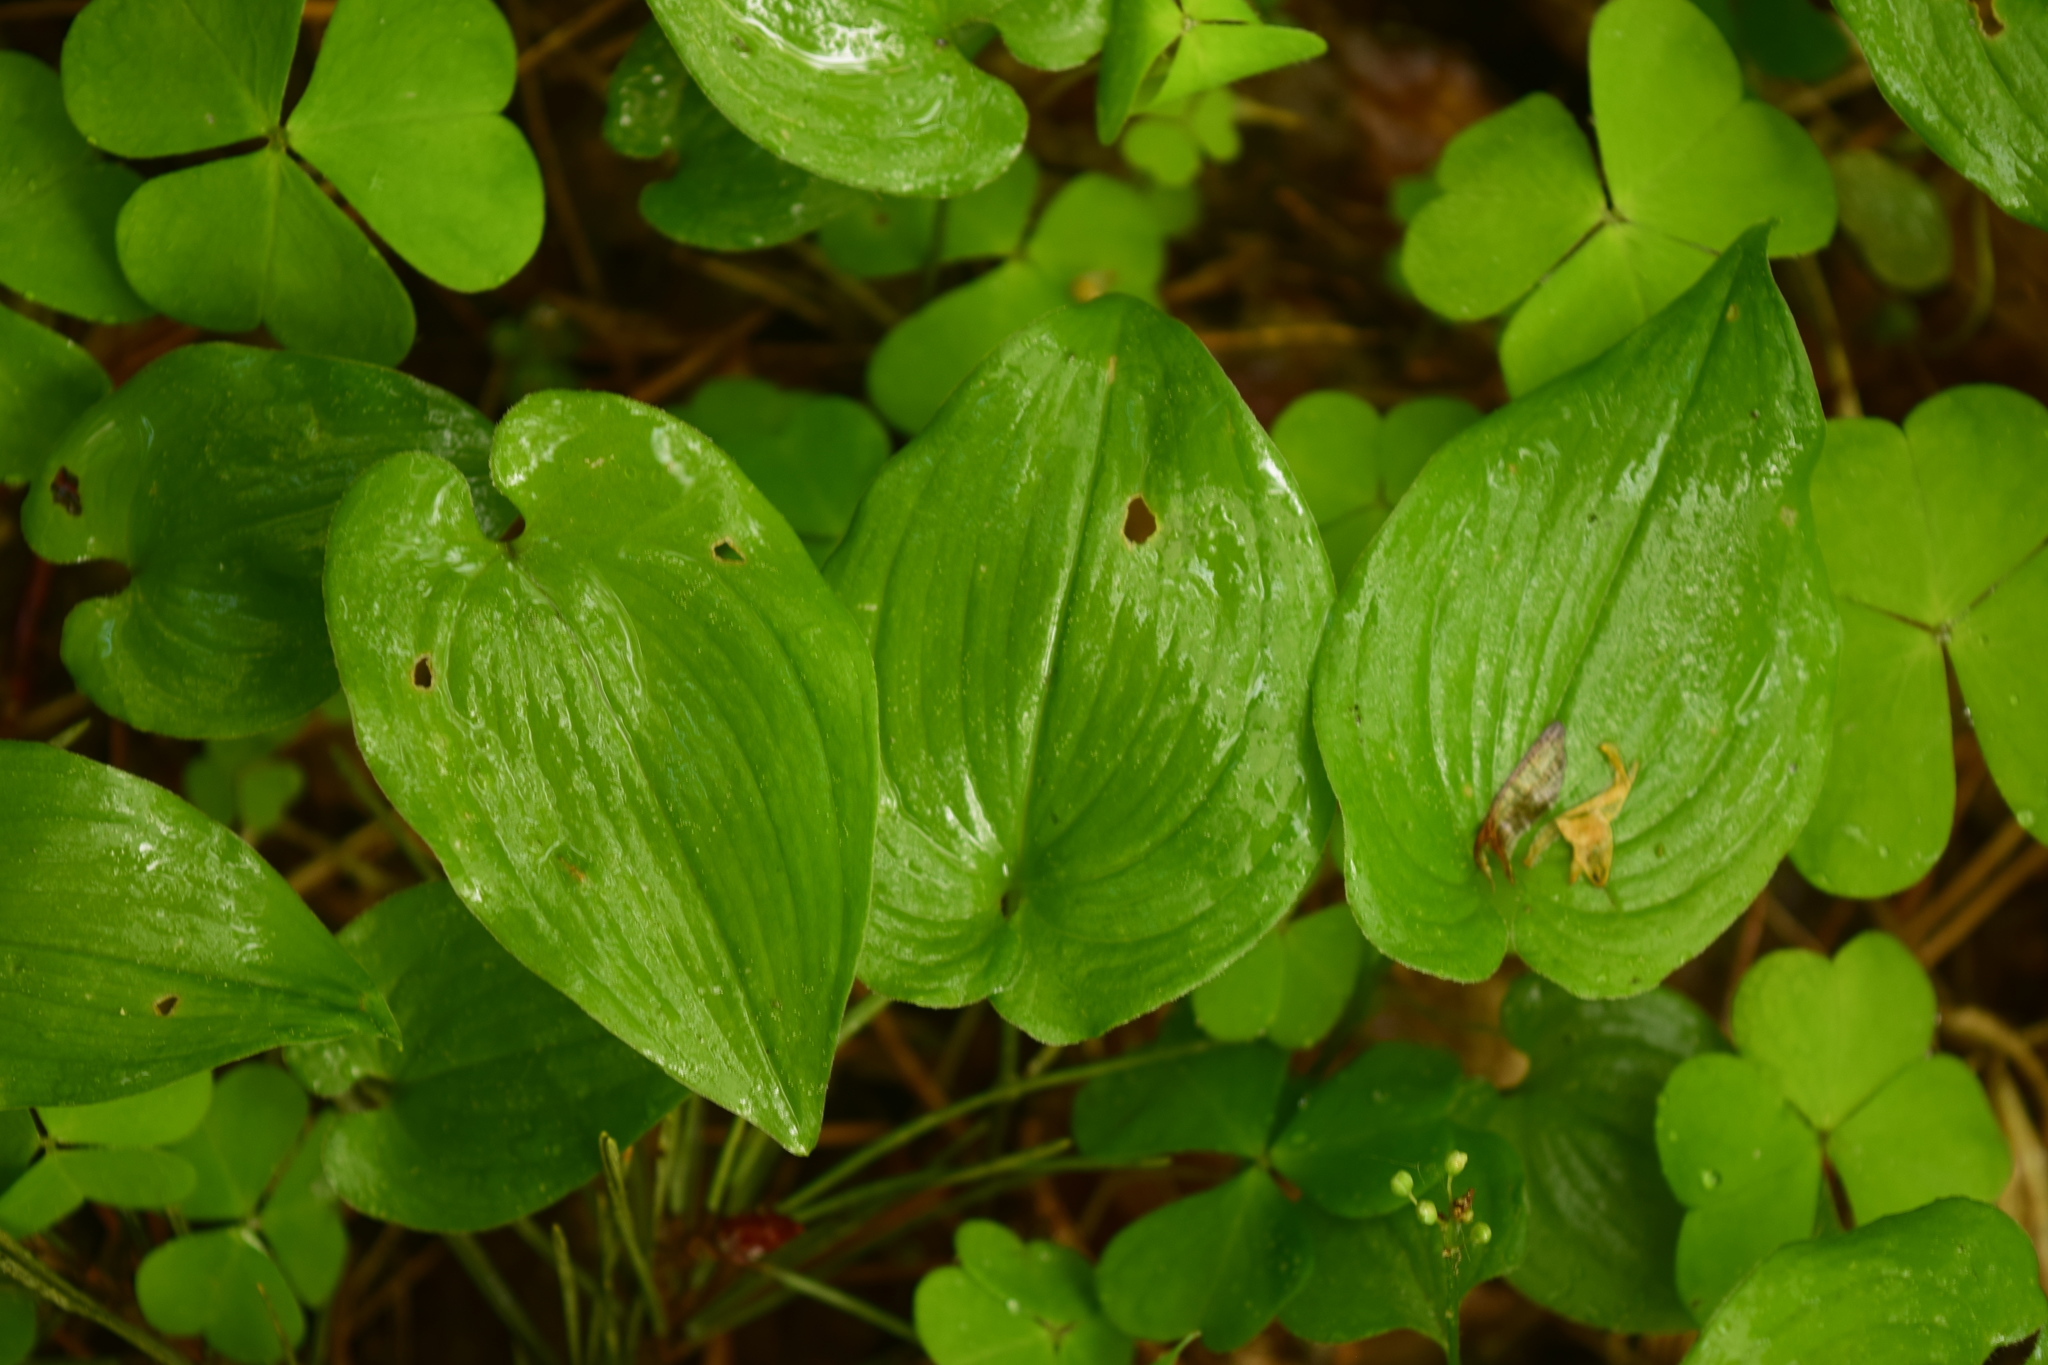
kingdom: Plantae
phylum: Tracheophyta
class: Liliopsida
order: Asparagales
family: Asparagaceae
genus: Maianthemum
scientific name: Maianthemum bifolium
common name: May lily
